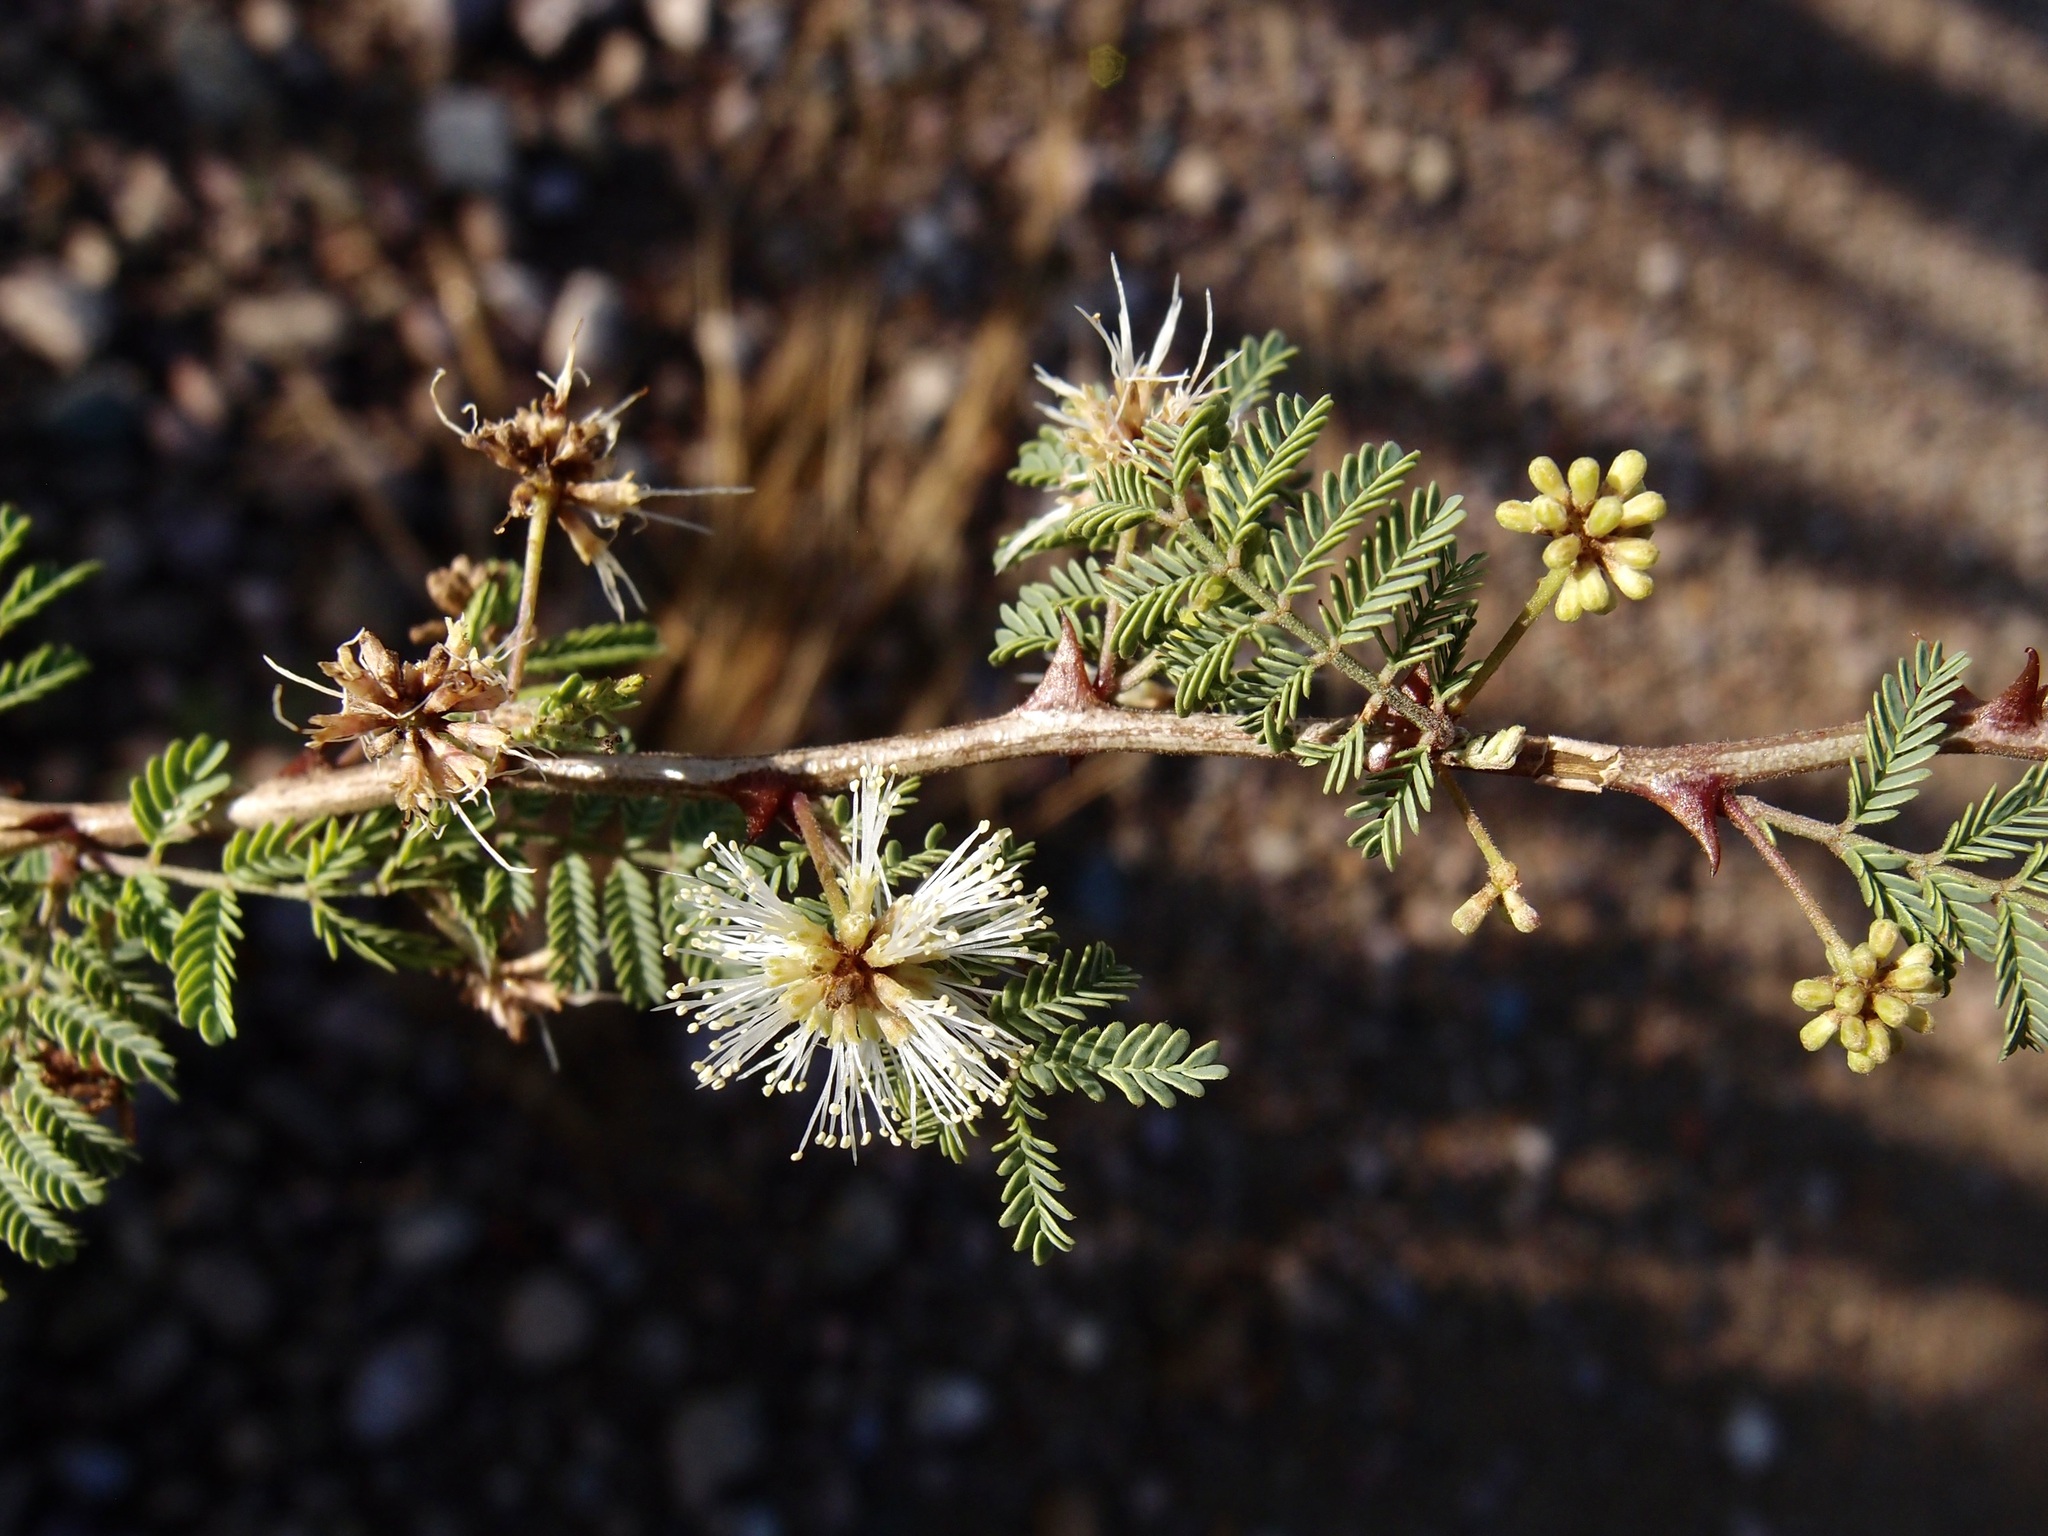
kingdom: Plantae
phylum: Tracheophyta
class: Magnoliopsida
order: Fabales
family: Fabaceae
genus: Mimosa
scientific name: Mimosa biuncifera
